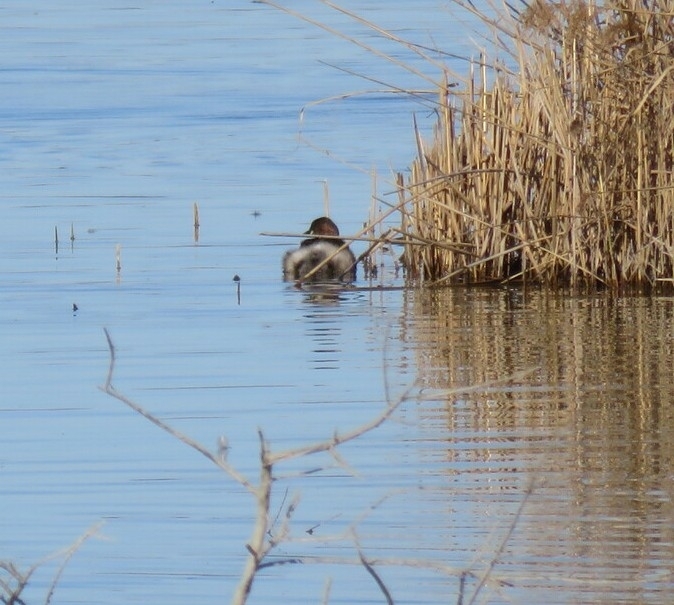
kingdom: Animalia
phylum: Chordata
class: Aves
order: Podicipediformes
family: Podicipedidae
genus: Tachybaptus
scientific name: Tachybaptus ruficollis
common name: Little grebe
